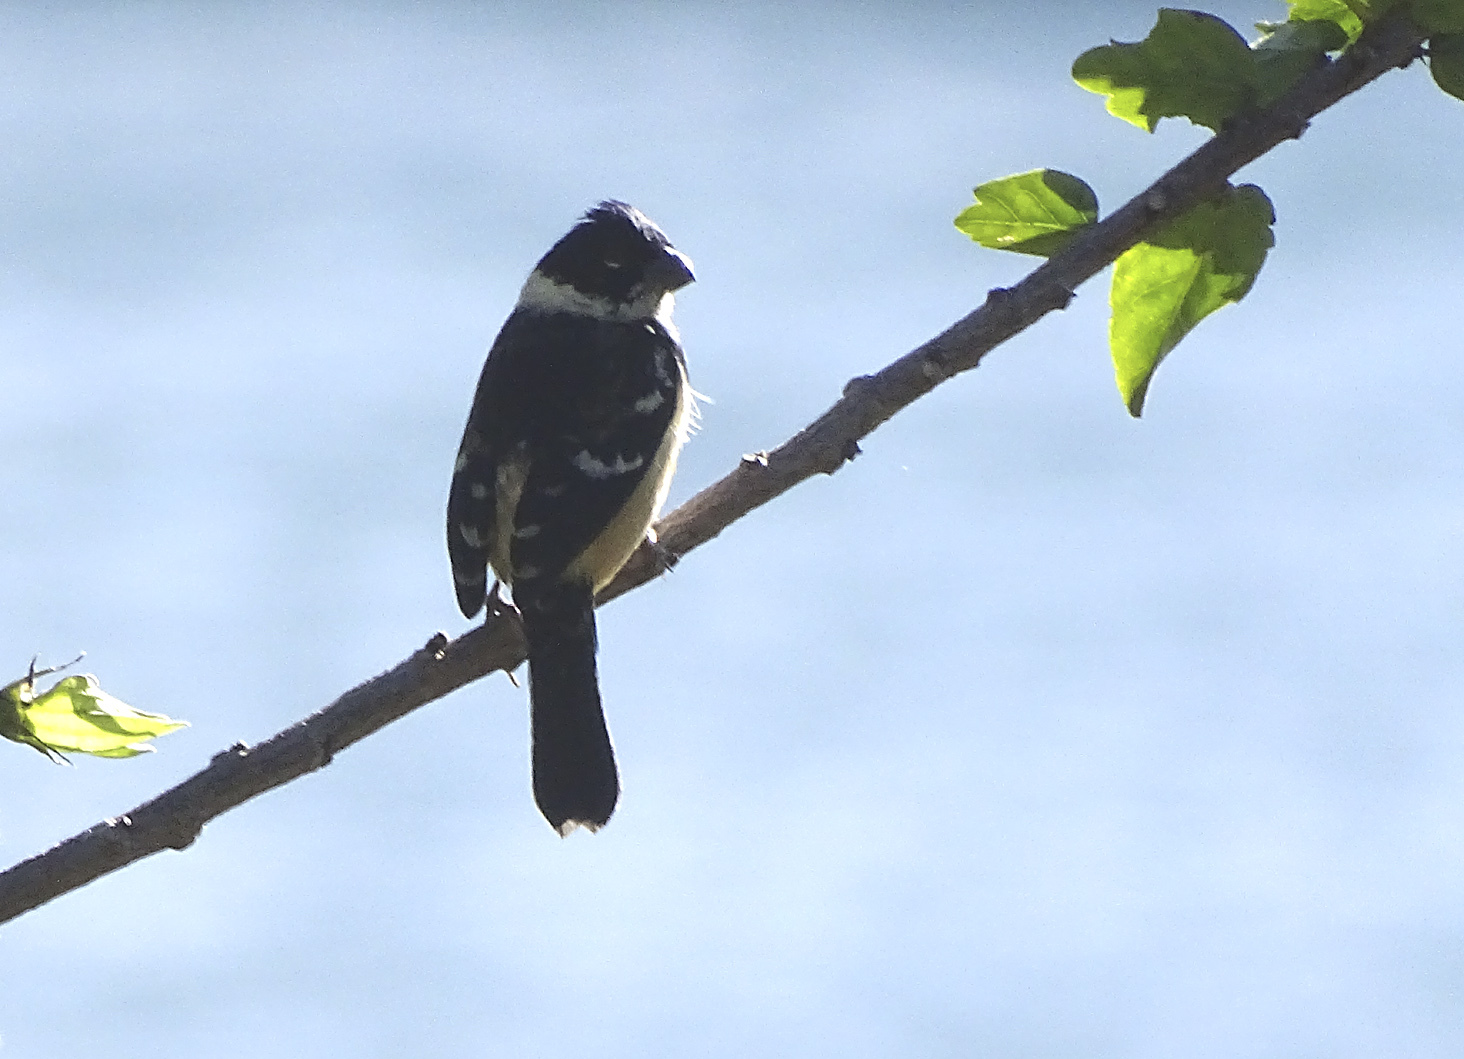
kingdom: Animalia
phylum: Chordata
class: Aves
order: Passeriformes
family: Thraupidae
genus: Sporophila
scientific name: Sporophila morelleti
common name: Morelet's seedeater
